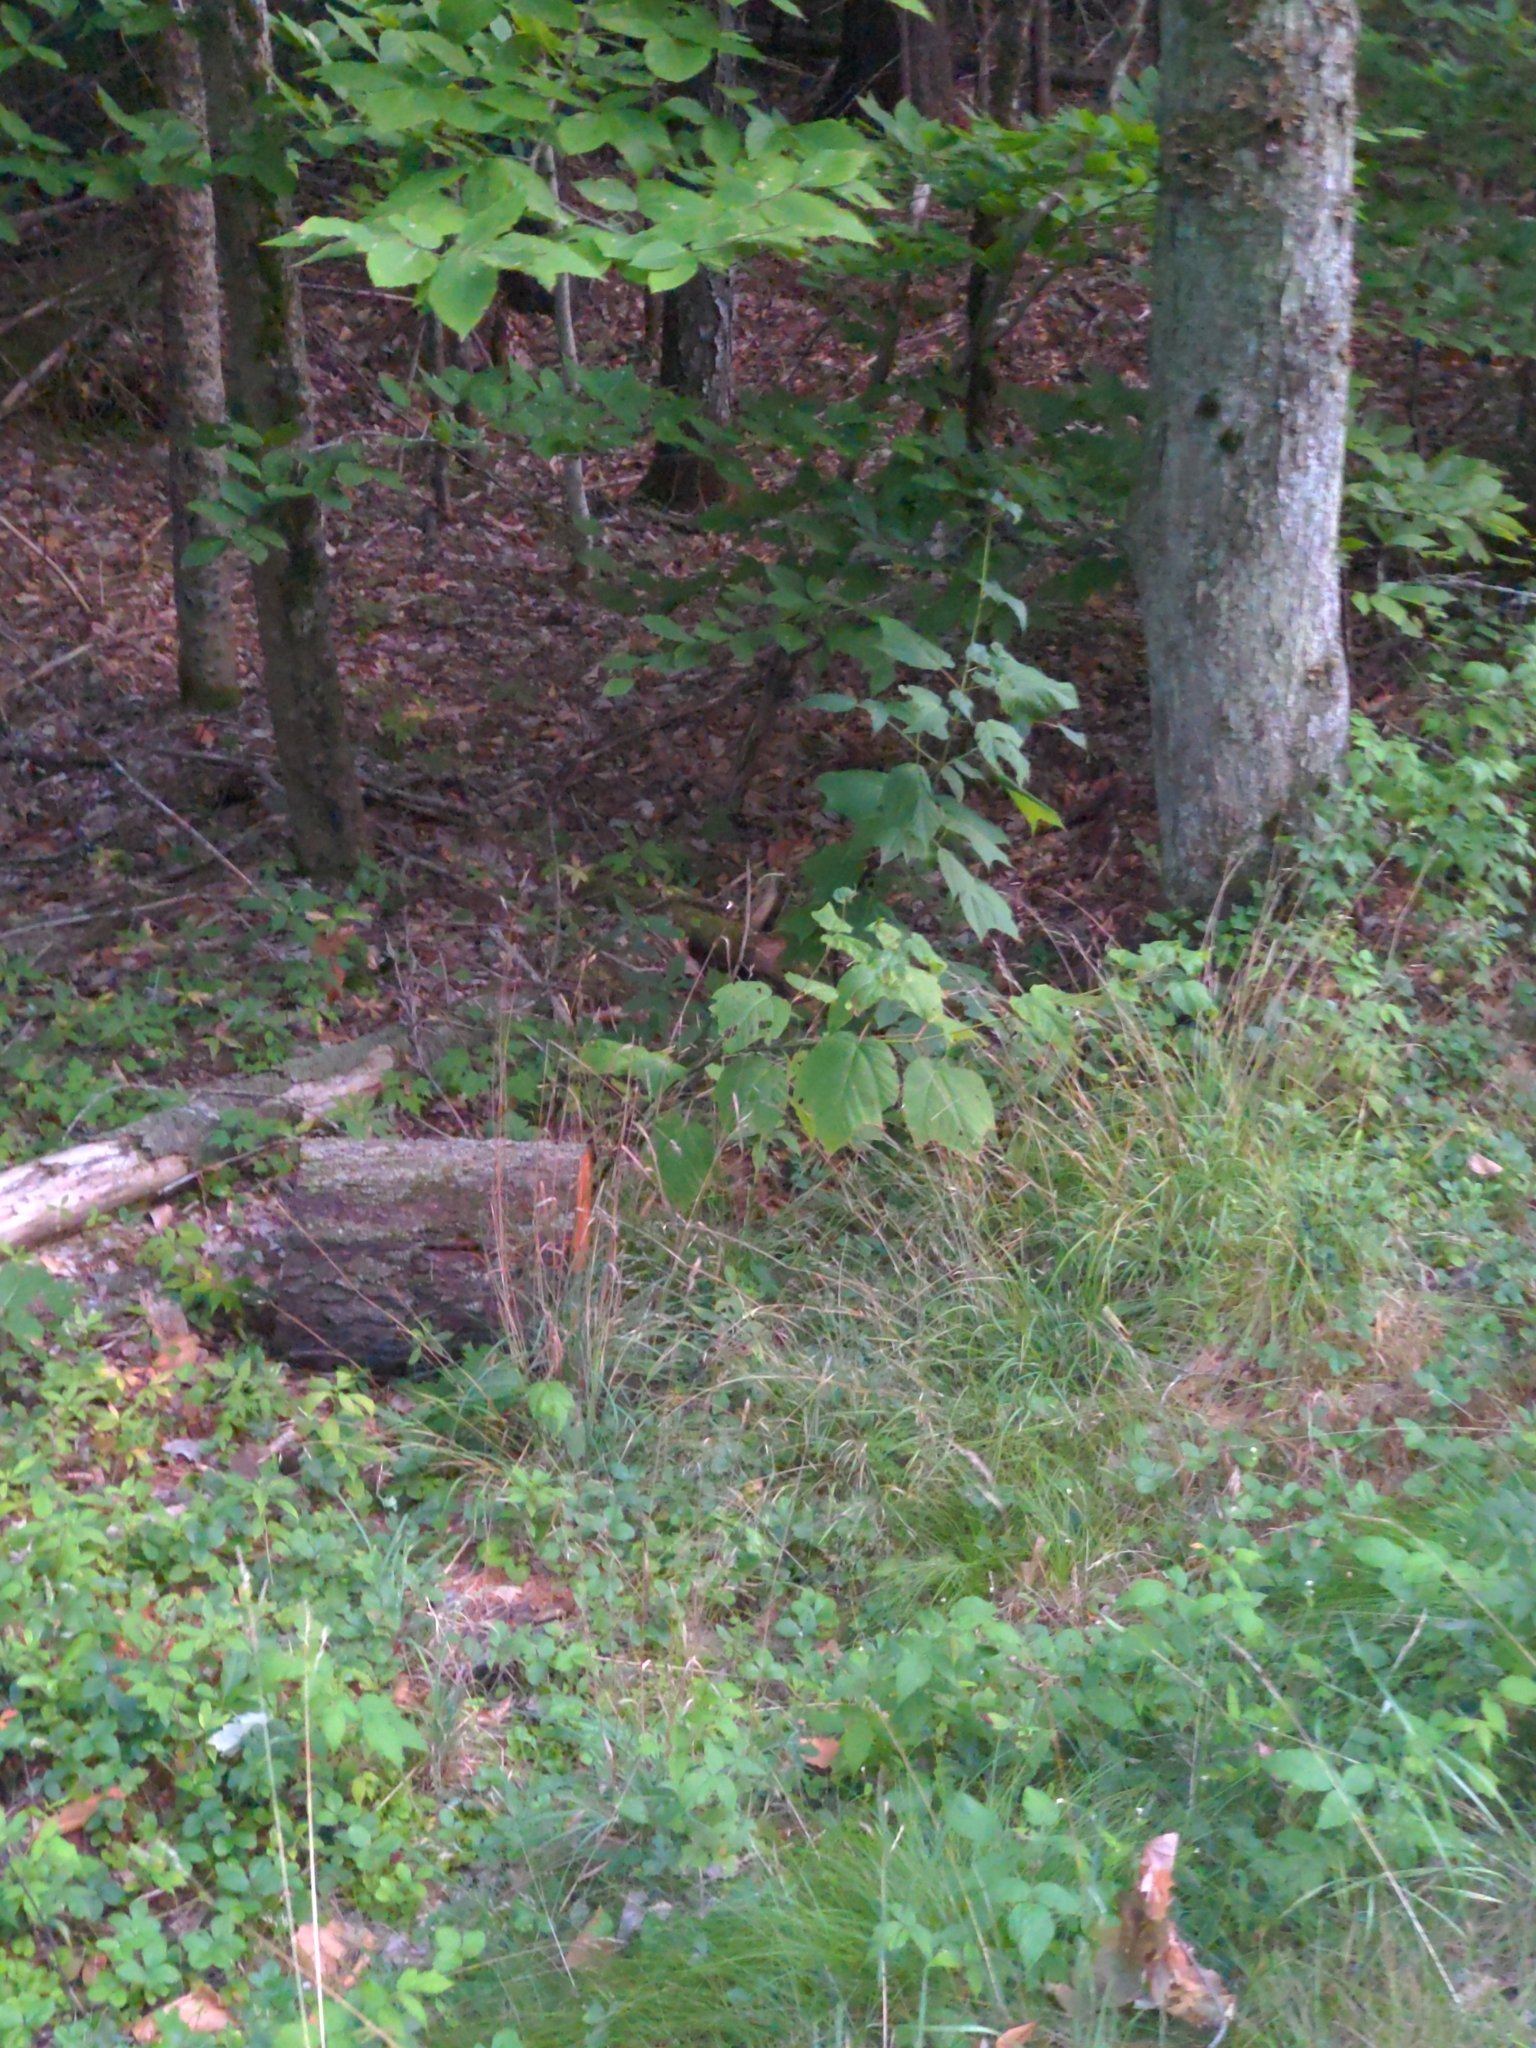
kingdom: Plantae
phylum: Tracheophyta
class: Magnoliopsida
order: Sapindales
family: Sapindaceae
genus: Acer
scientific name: Acer pensylvanicum
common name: Moosewood
